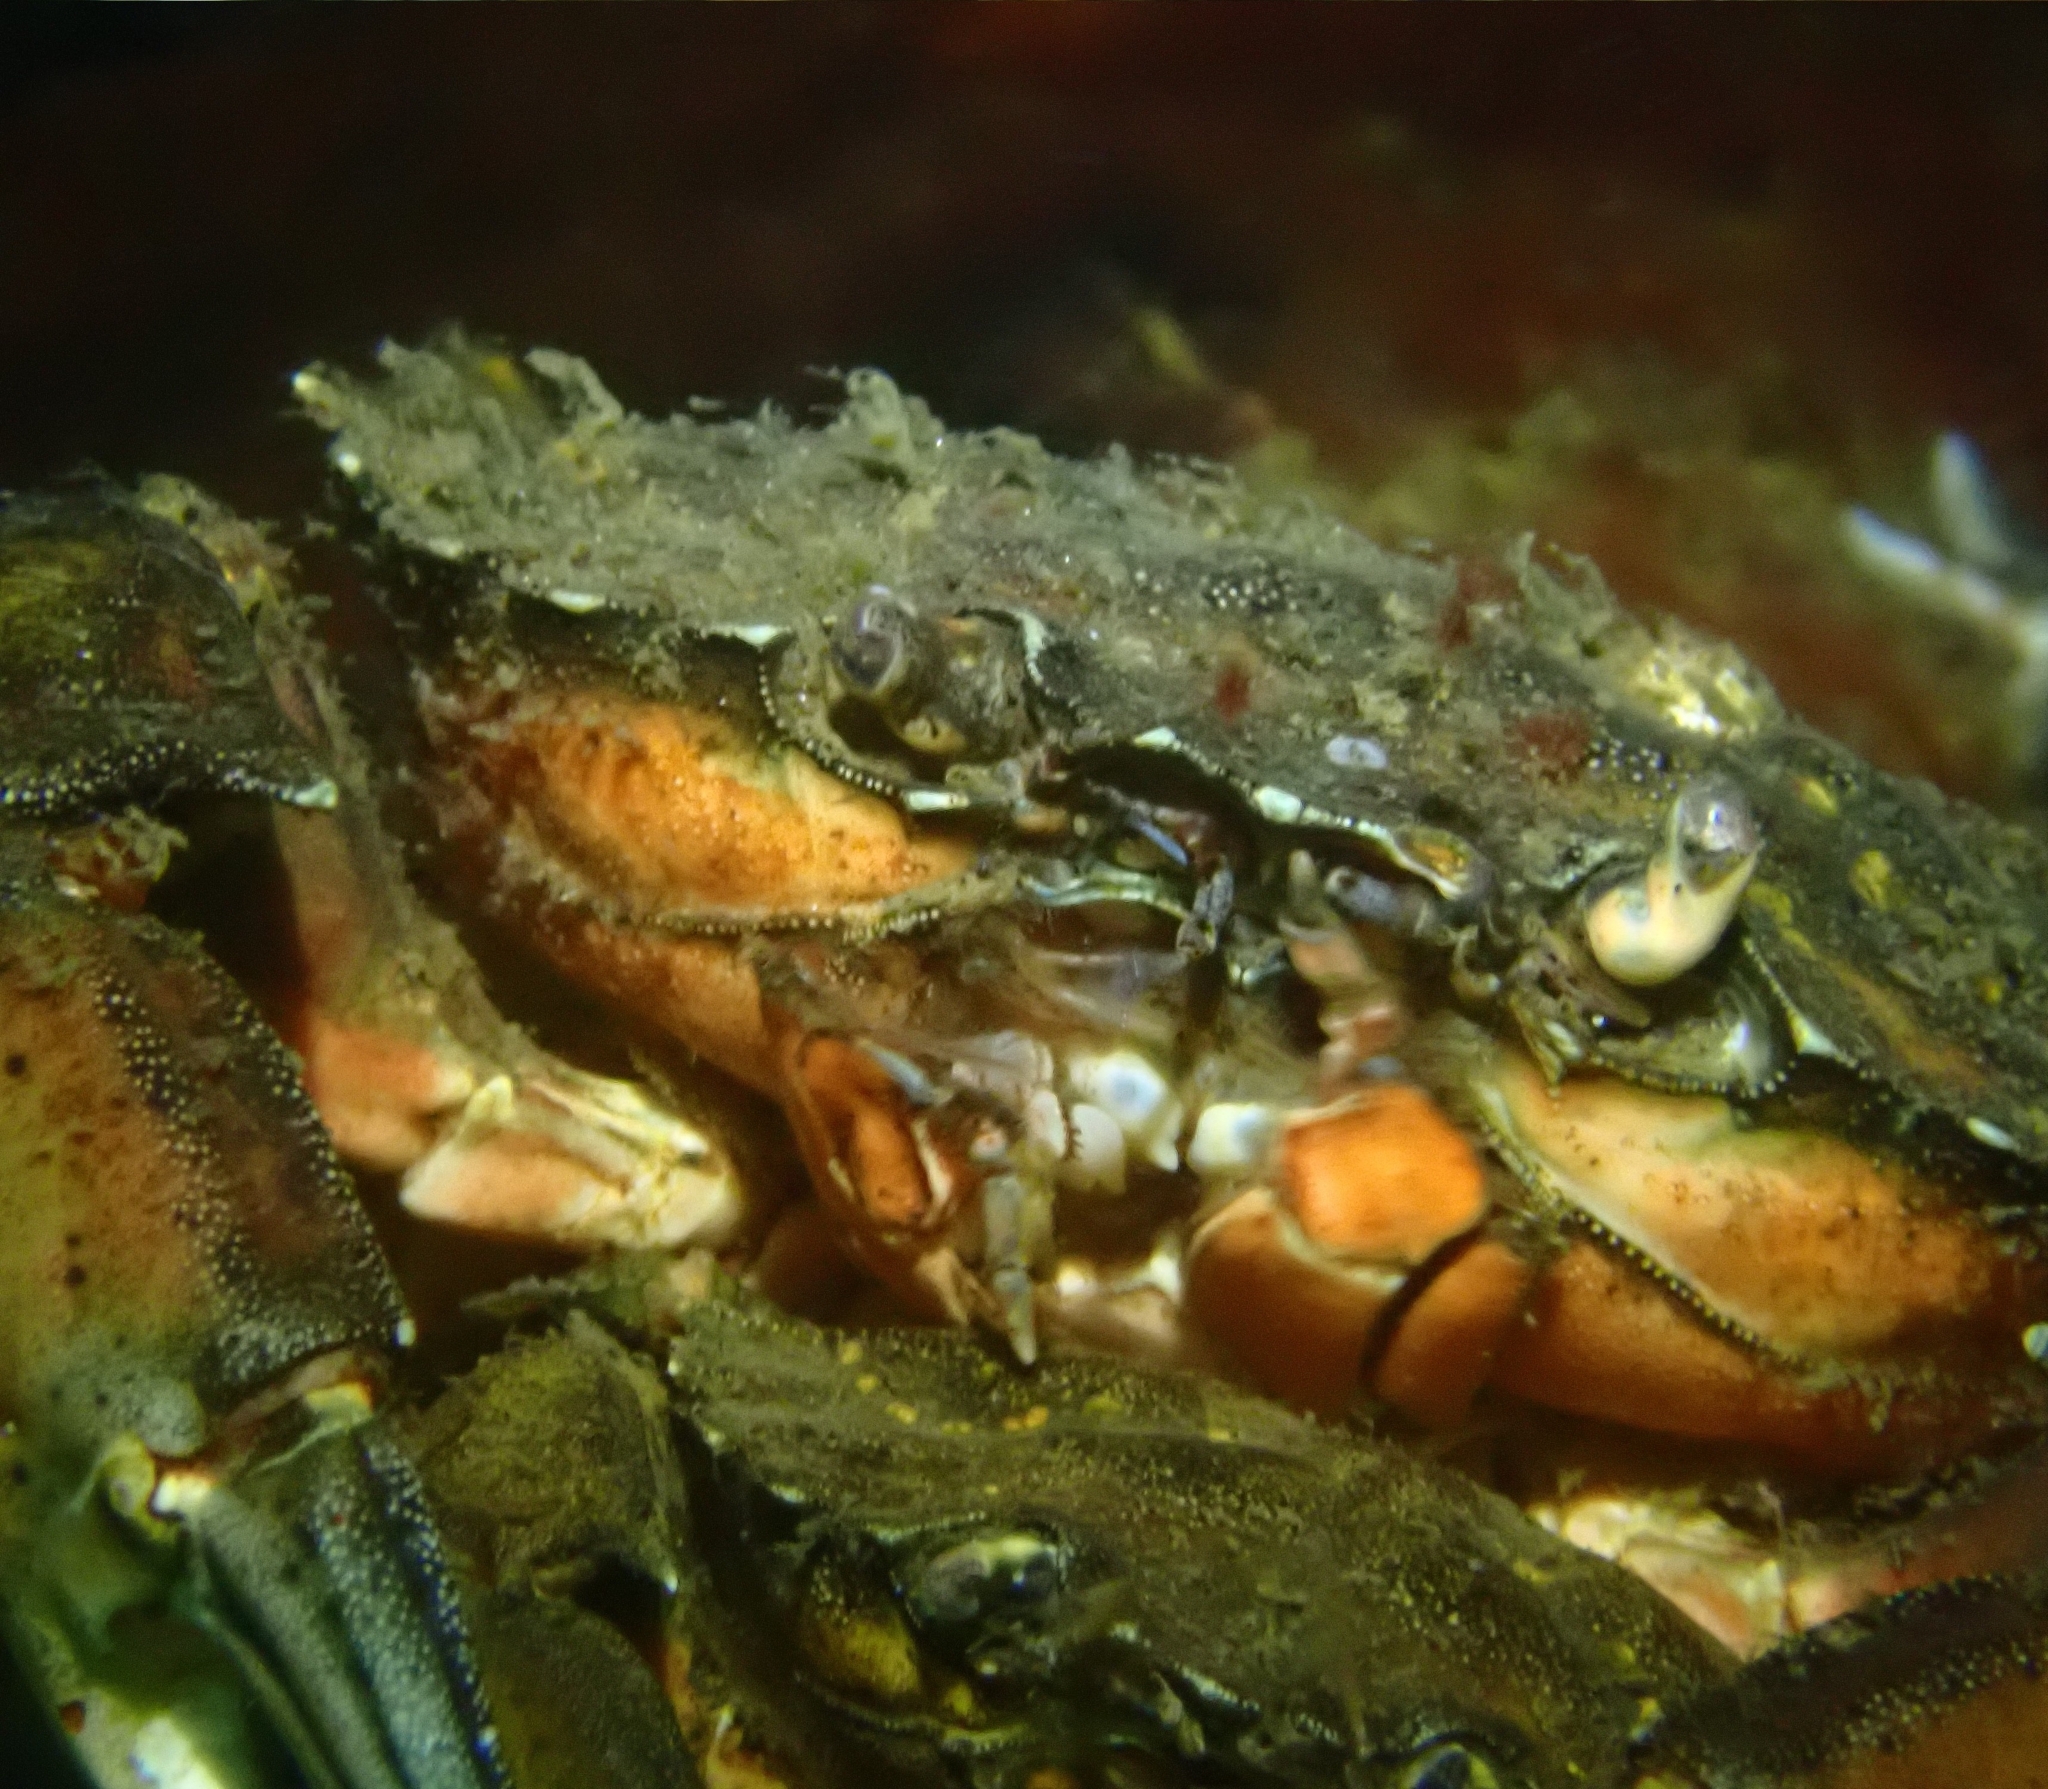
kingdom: Animalia
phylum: Arthropoda
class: Malacostraca
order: Decapoda
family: Carcinidae
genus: Carcinus
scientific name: Carcinus maenas
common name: European green crab
